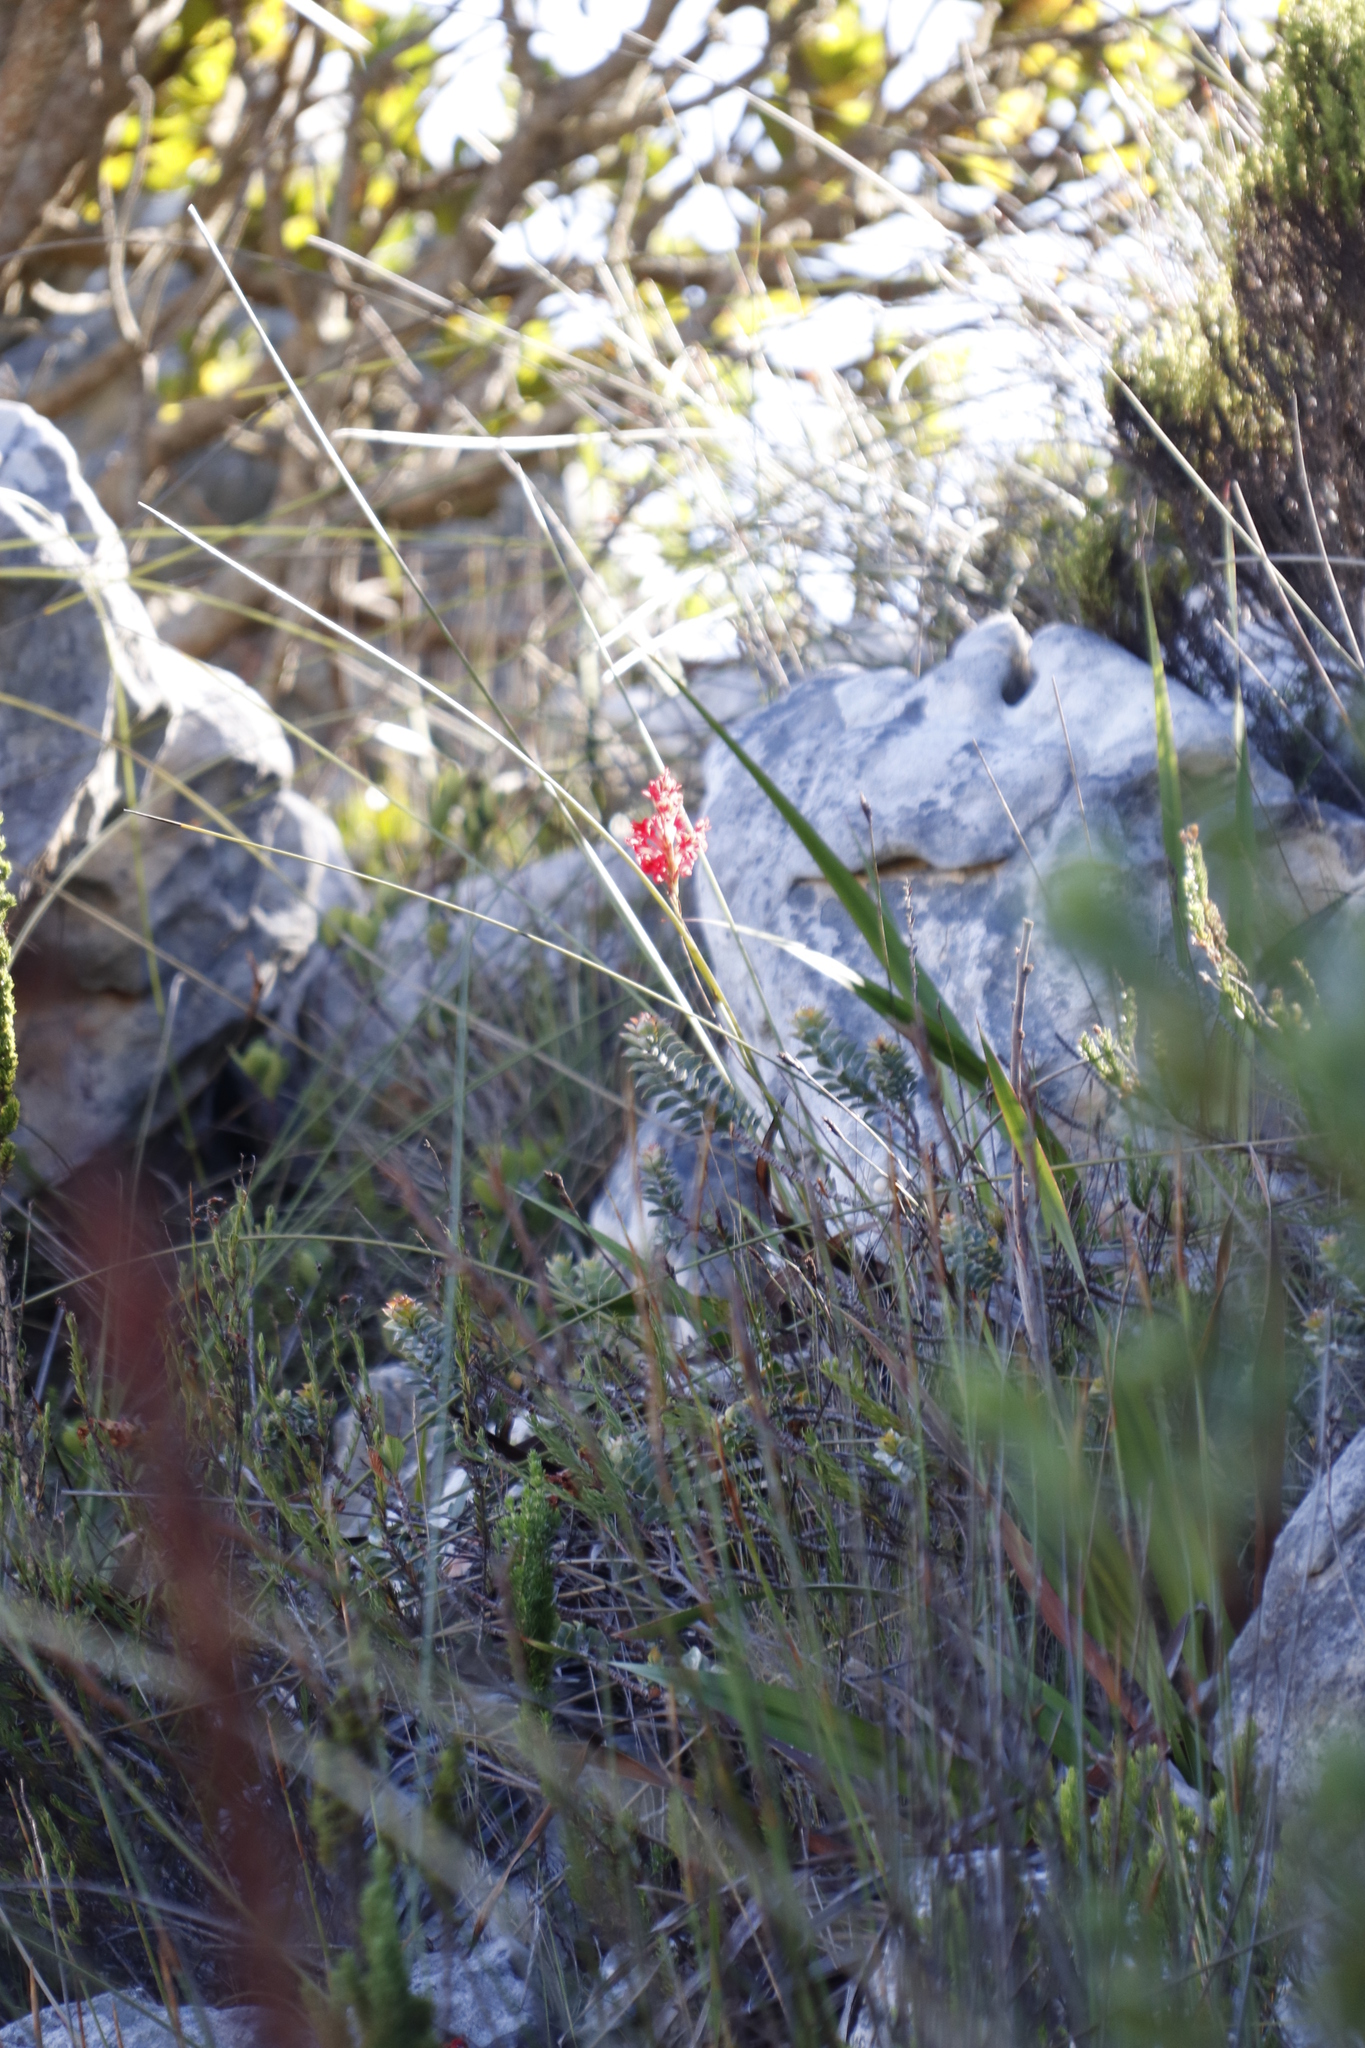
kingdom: Plantae
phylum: Tracheophyta
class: Liliopsida
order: Asparagales
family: Iridaceae
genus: Tritoniopsis
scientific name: Tritoniopsis triticea
